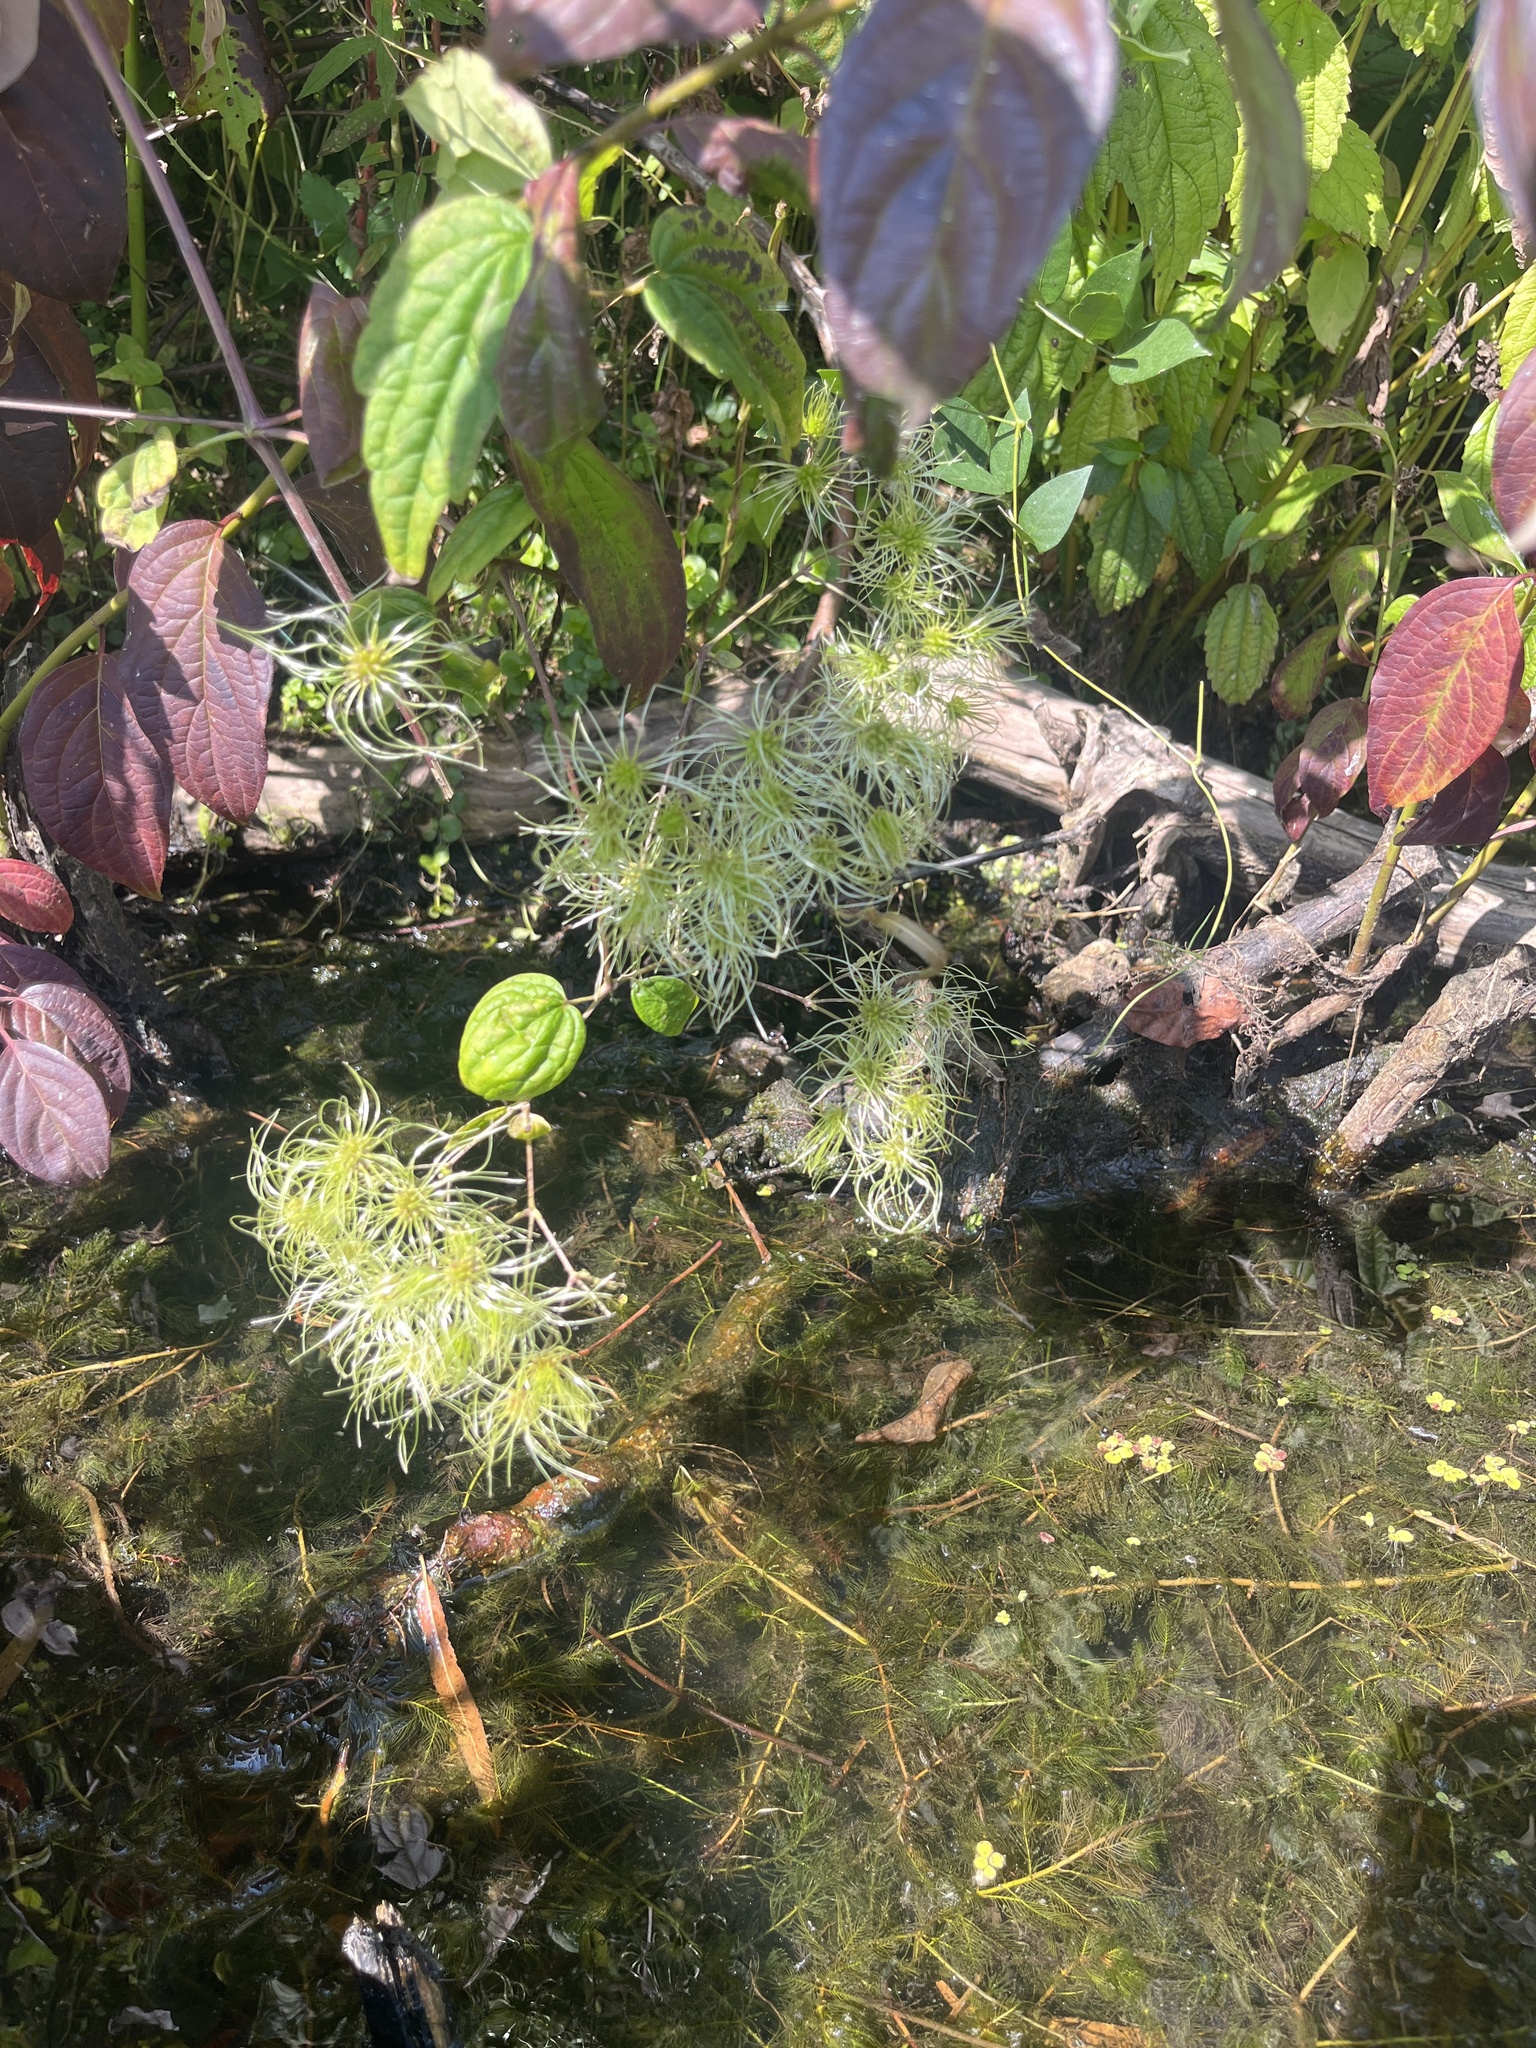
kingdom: Plantae
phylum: Tracheophyta
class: Magnoliopsida
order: Ranunculales
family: Ranunculaceae
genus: Clematis
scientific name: Clematis virginiana
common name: Virgin's-bower
